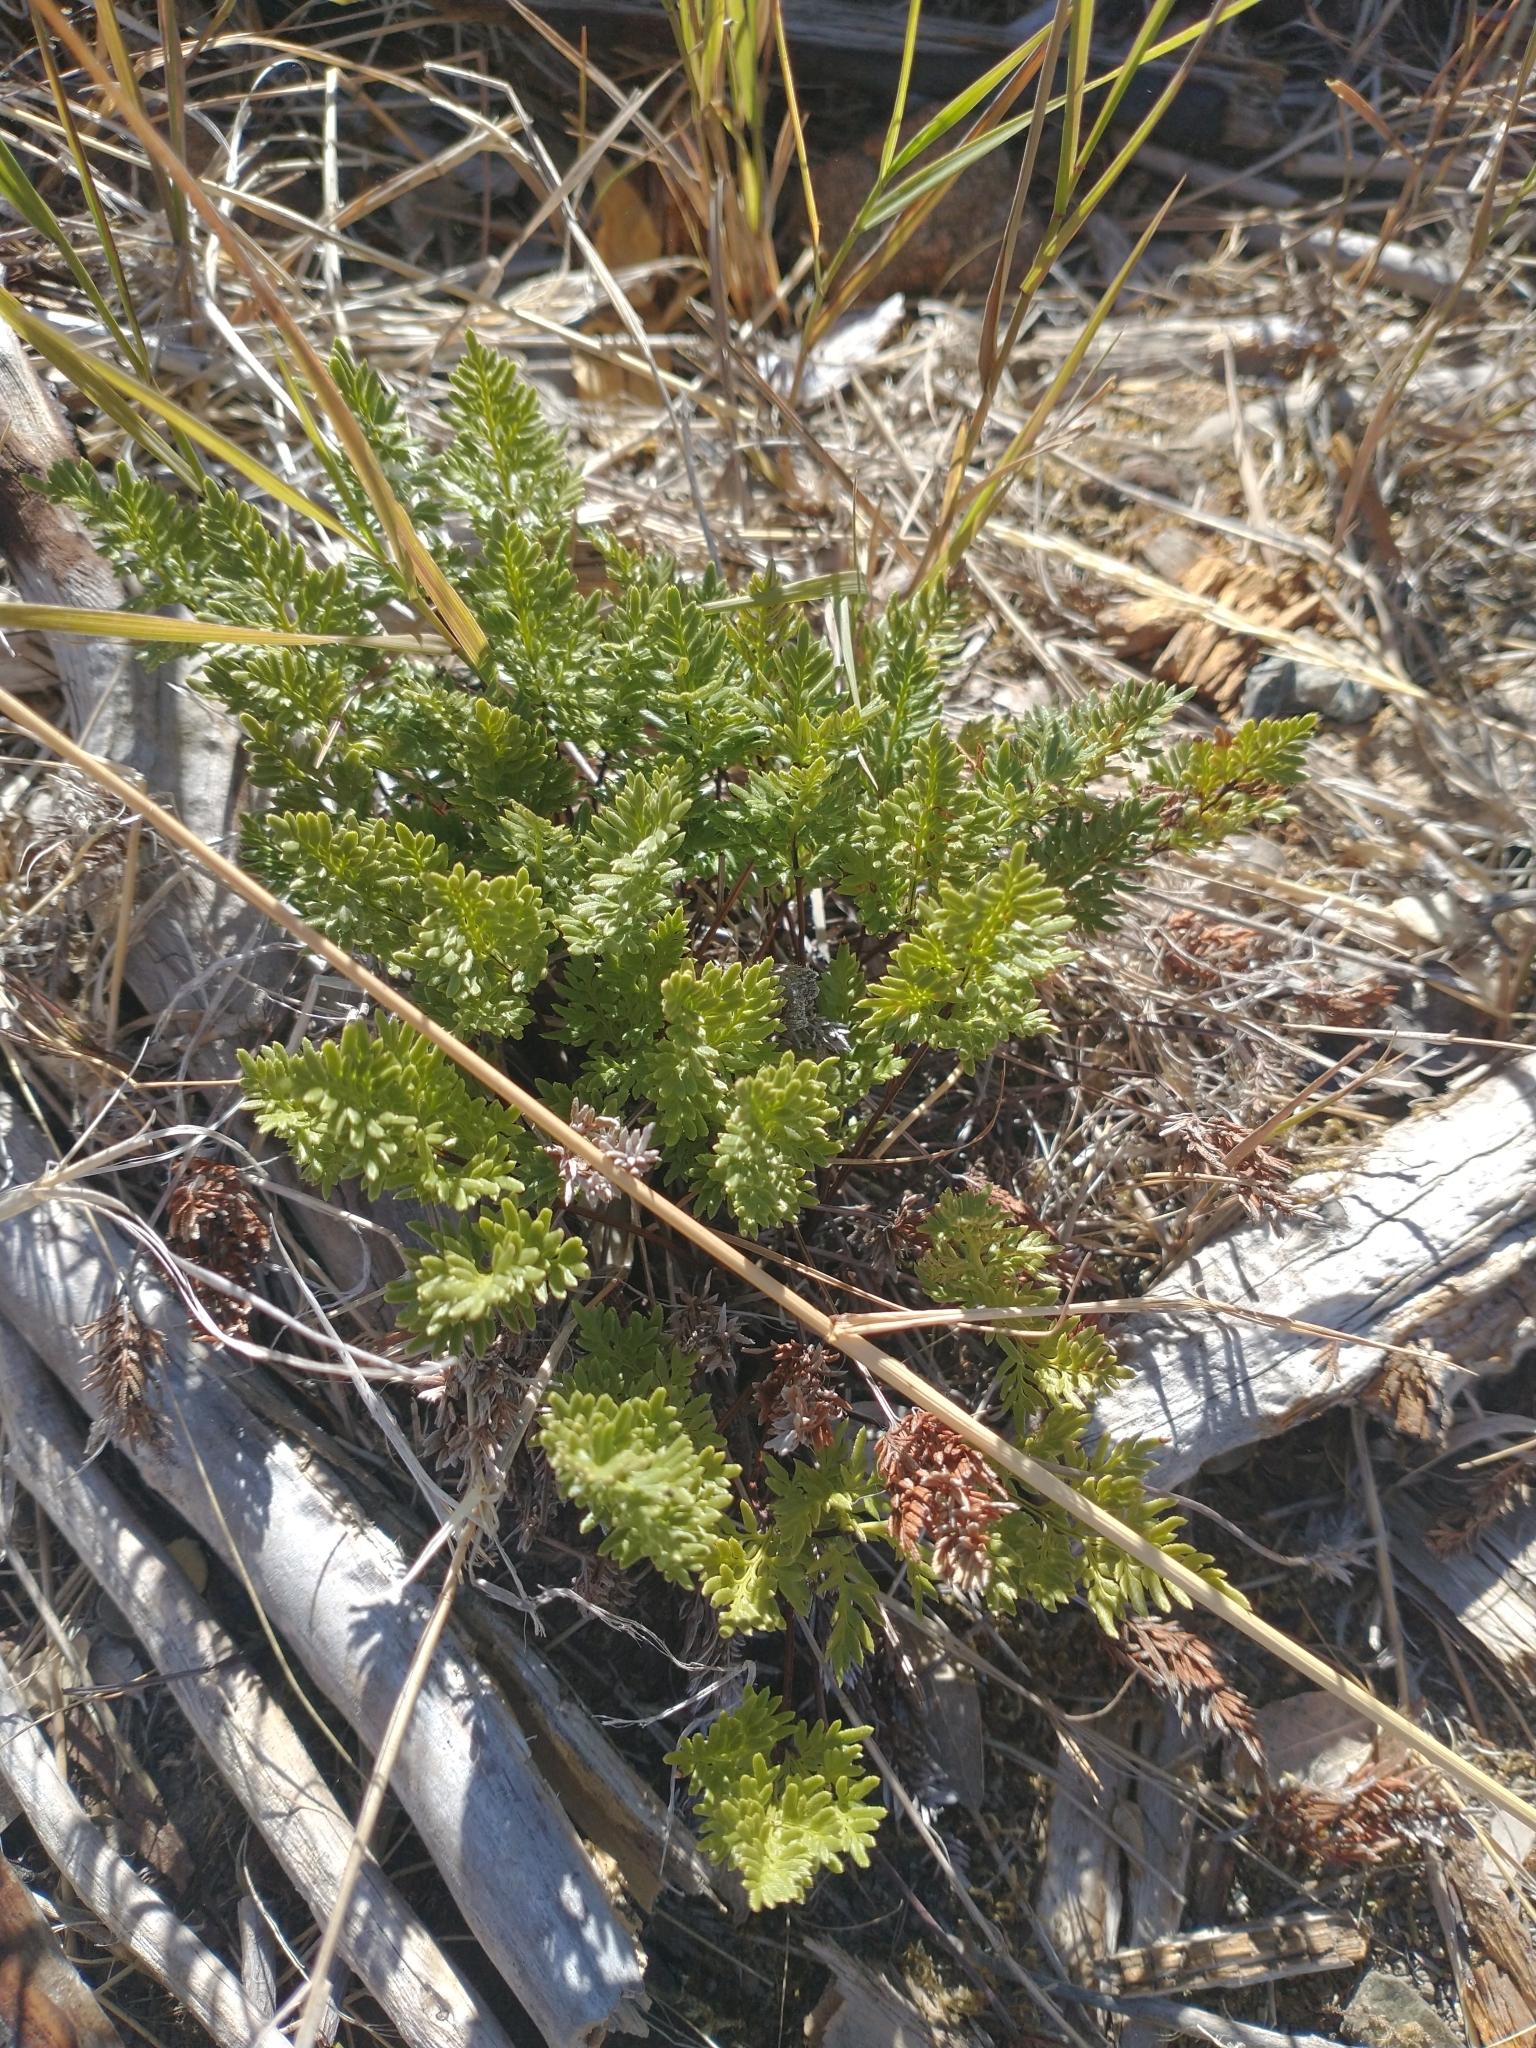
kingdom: Plantae
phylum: Tracheophyta
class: Polypodiopsida
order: Polypodiales
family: Pteridaceae
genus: Aspidotis
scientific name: Aspidotis densa
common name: Indian's dream
